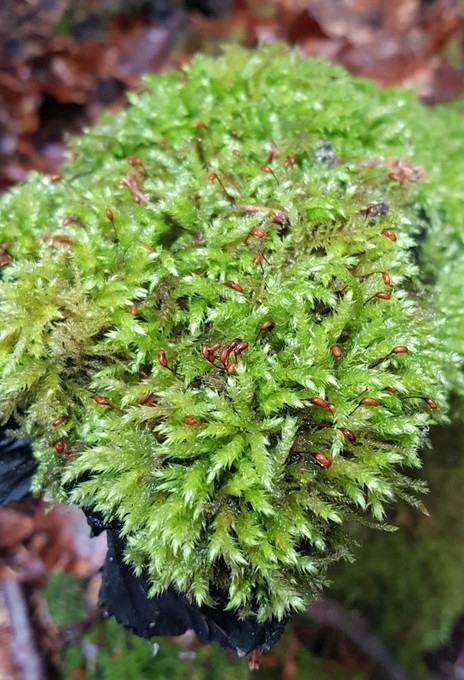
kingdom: Plantae
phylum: Bryophyta
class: Bryopsida
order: Hypnales
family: Brachytheciaceae
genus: Brachythecium
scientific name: Brachythecium rutabulum
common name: Rough-stalked feather-moss
